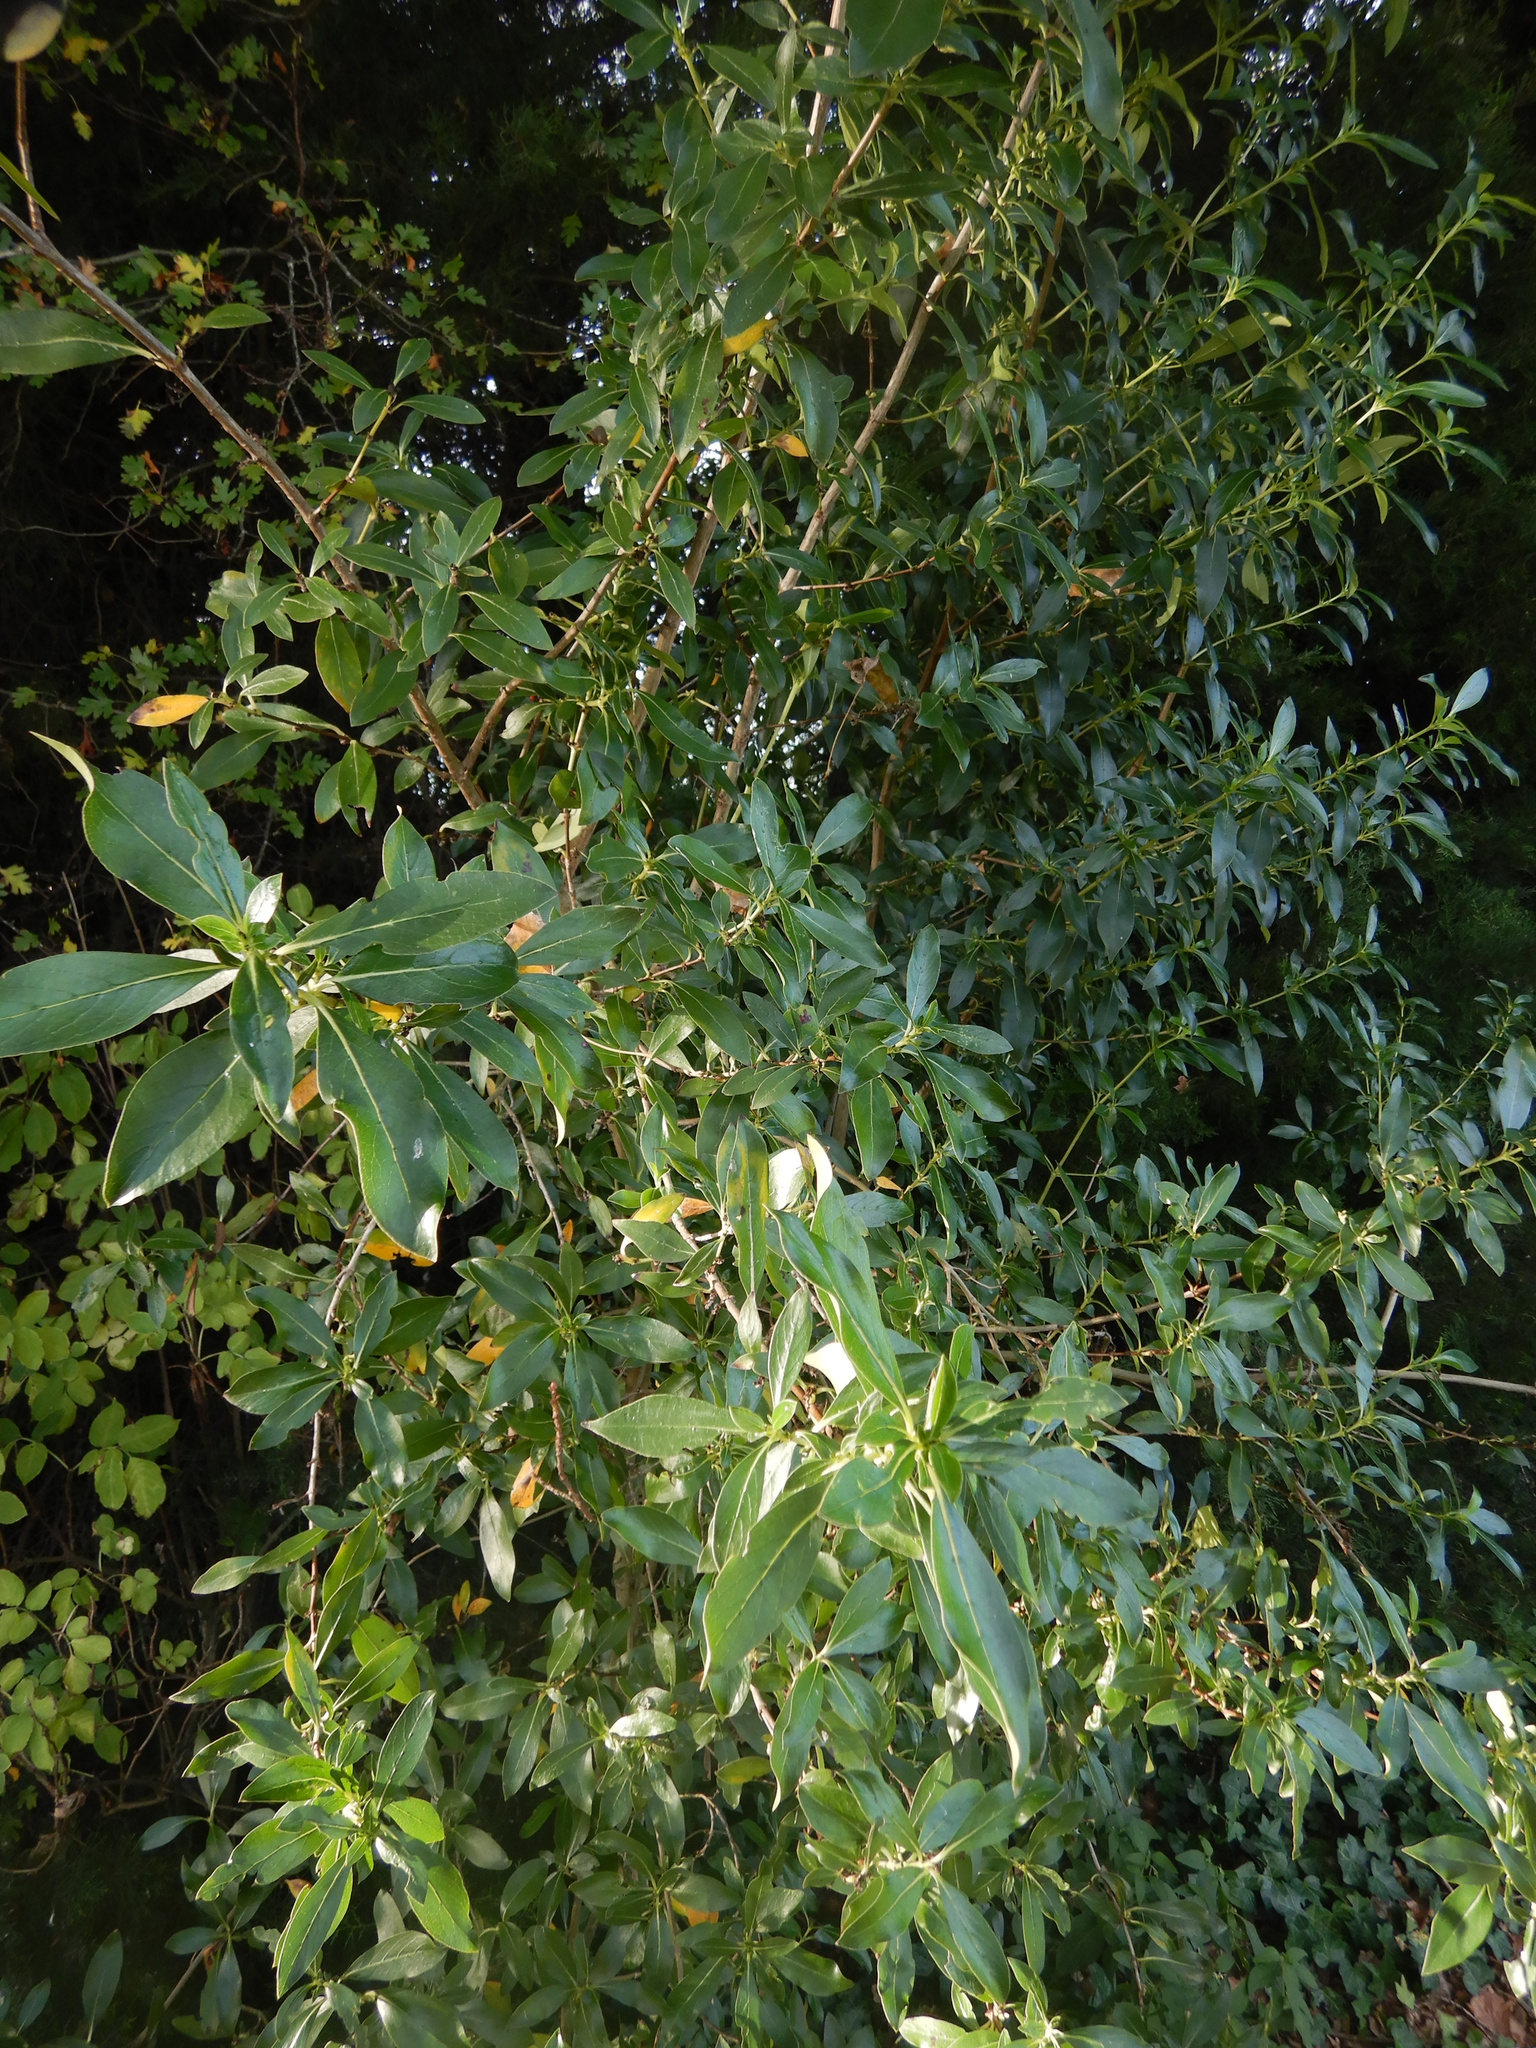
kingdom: Plantae
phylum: Tracheophyta
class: Magnoliopsida
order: Gentianales
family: Rubiaceae
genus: Coprosma
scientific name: Coprosma robusta
